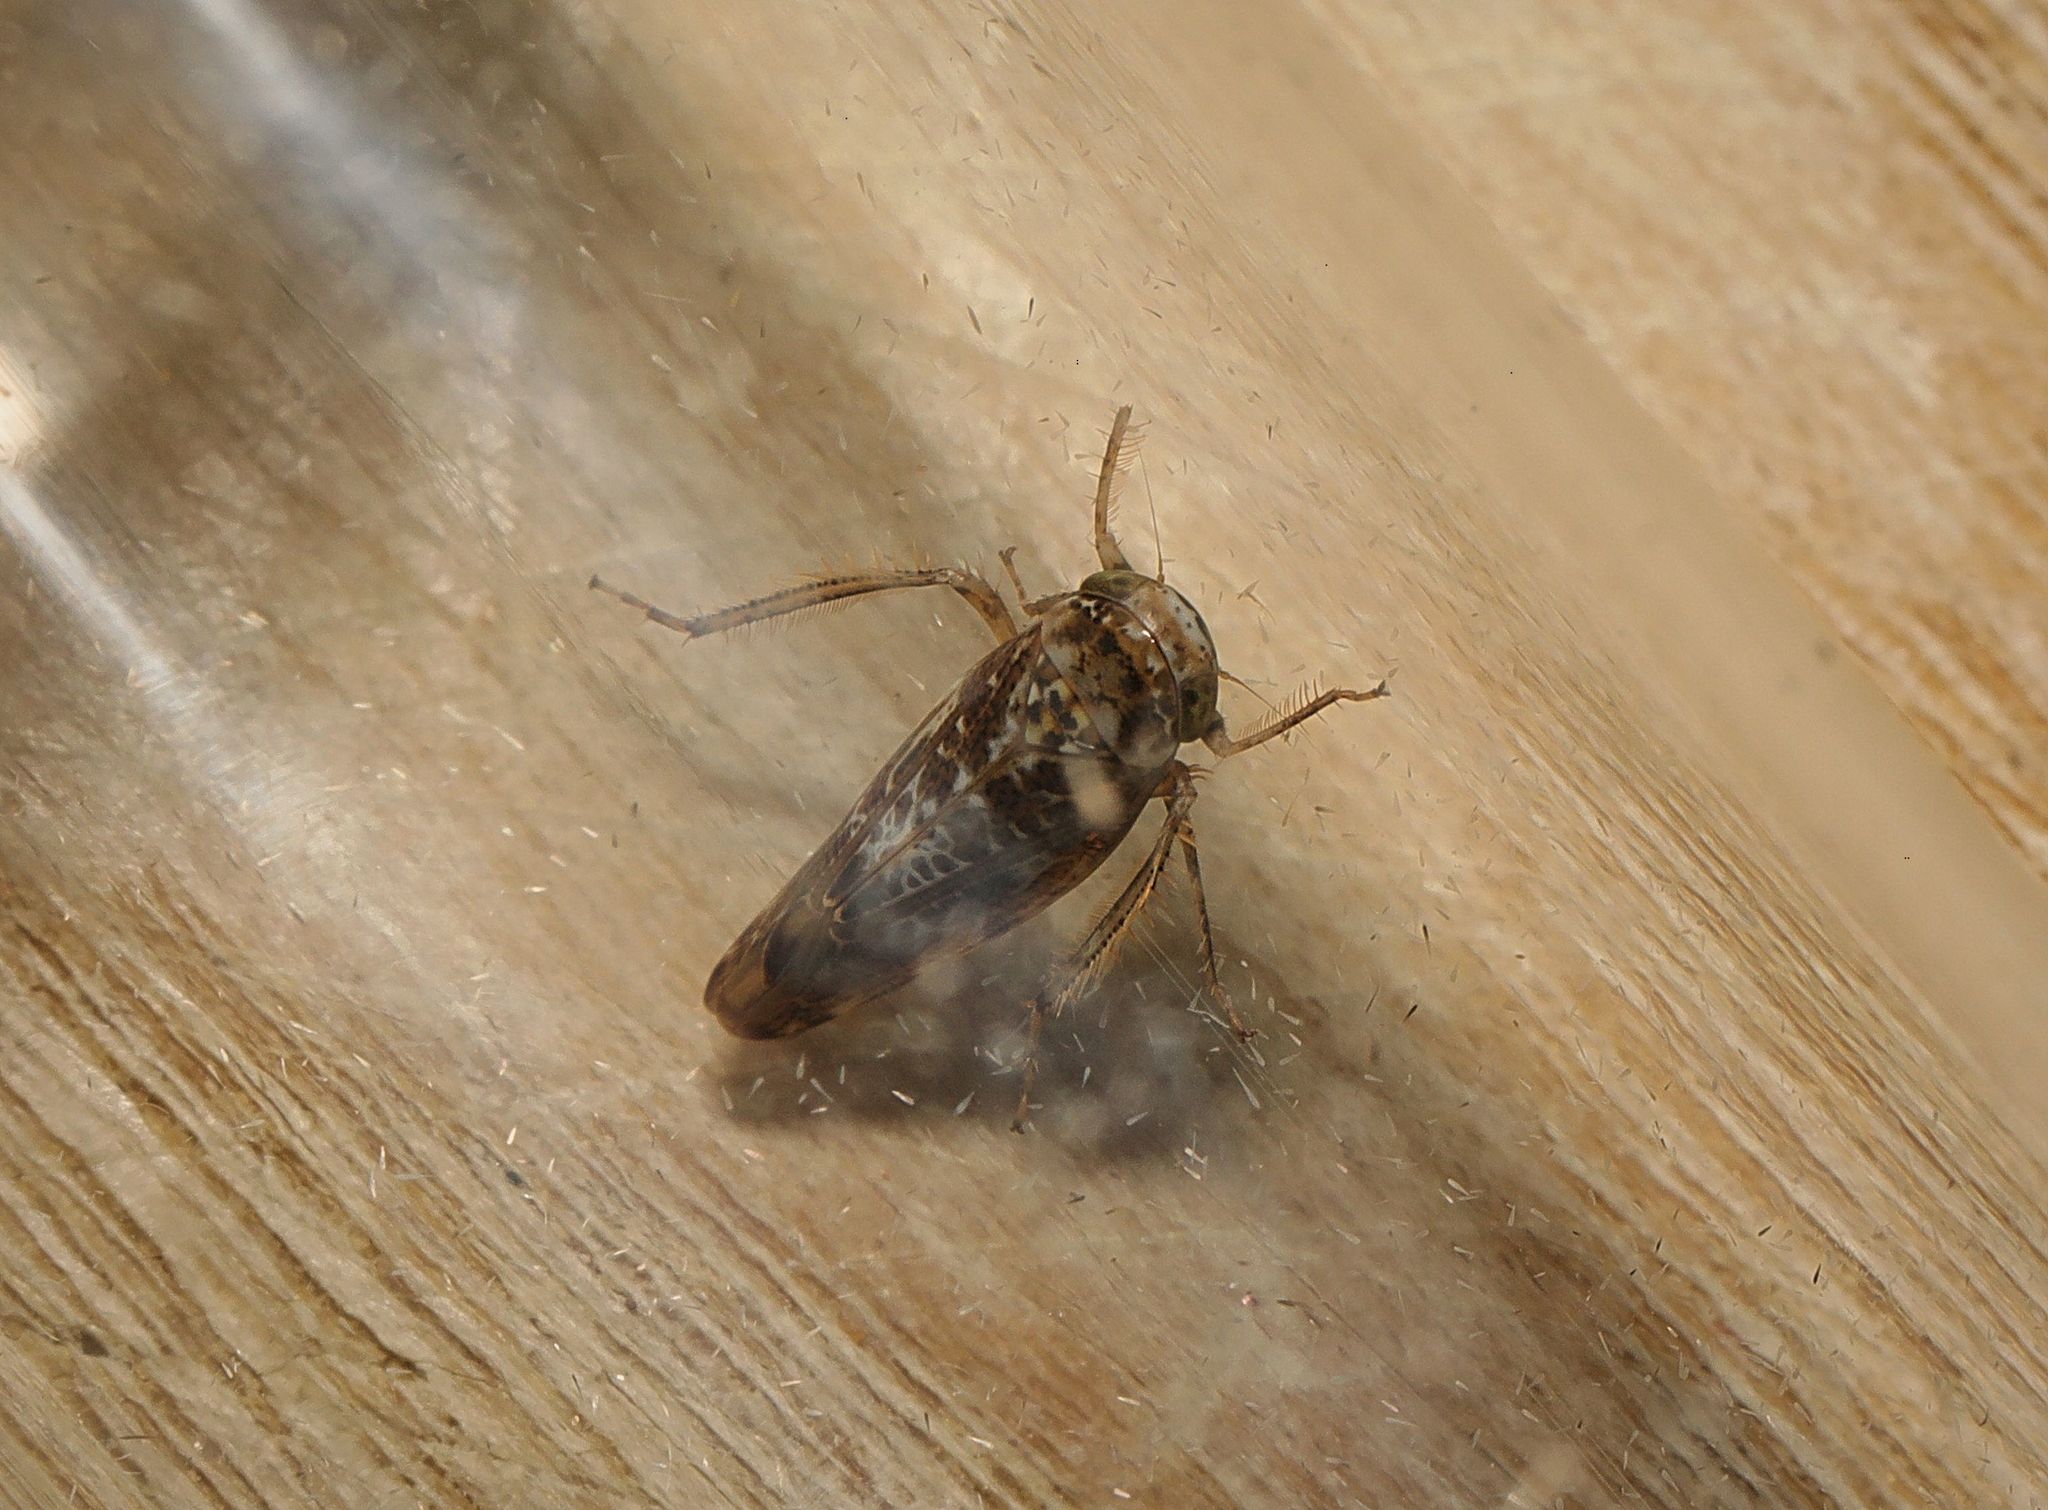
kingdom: Animalia
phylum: Arthropoda
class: Insecta
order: Hemiptera
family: Cicadellidae
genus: Allygus
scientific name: Allygus mixtus
